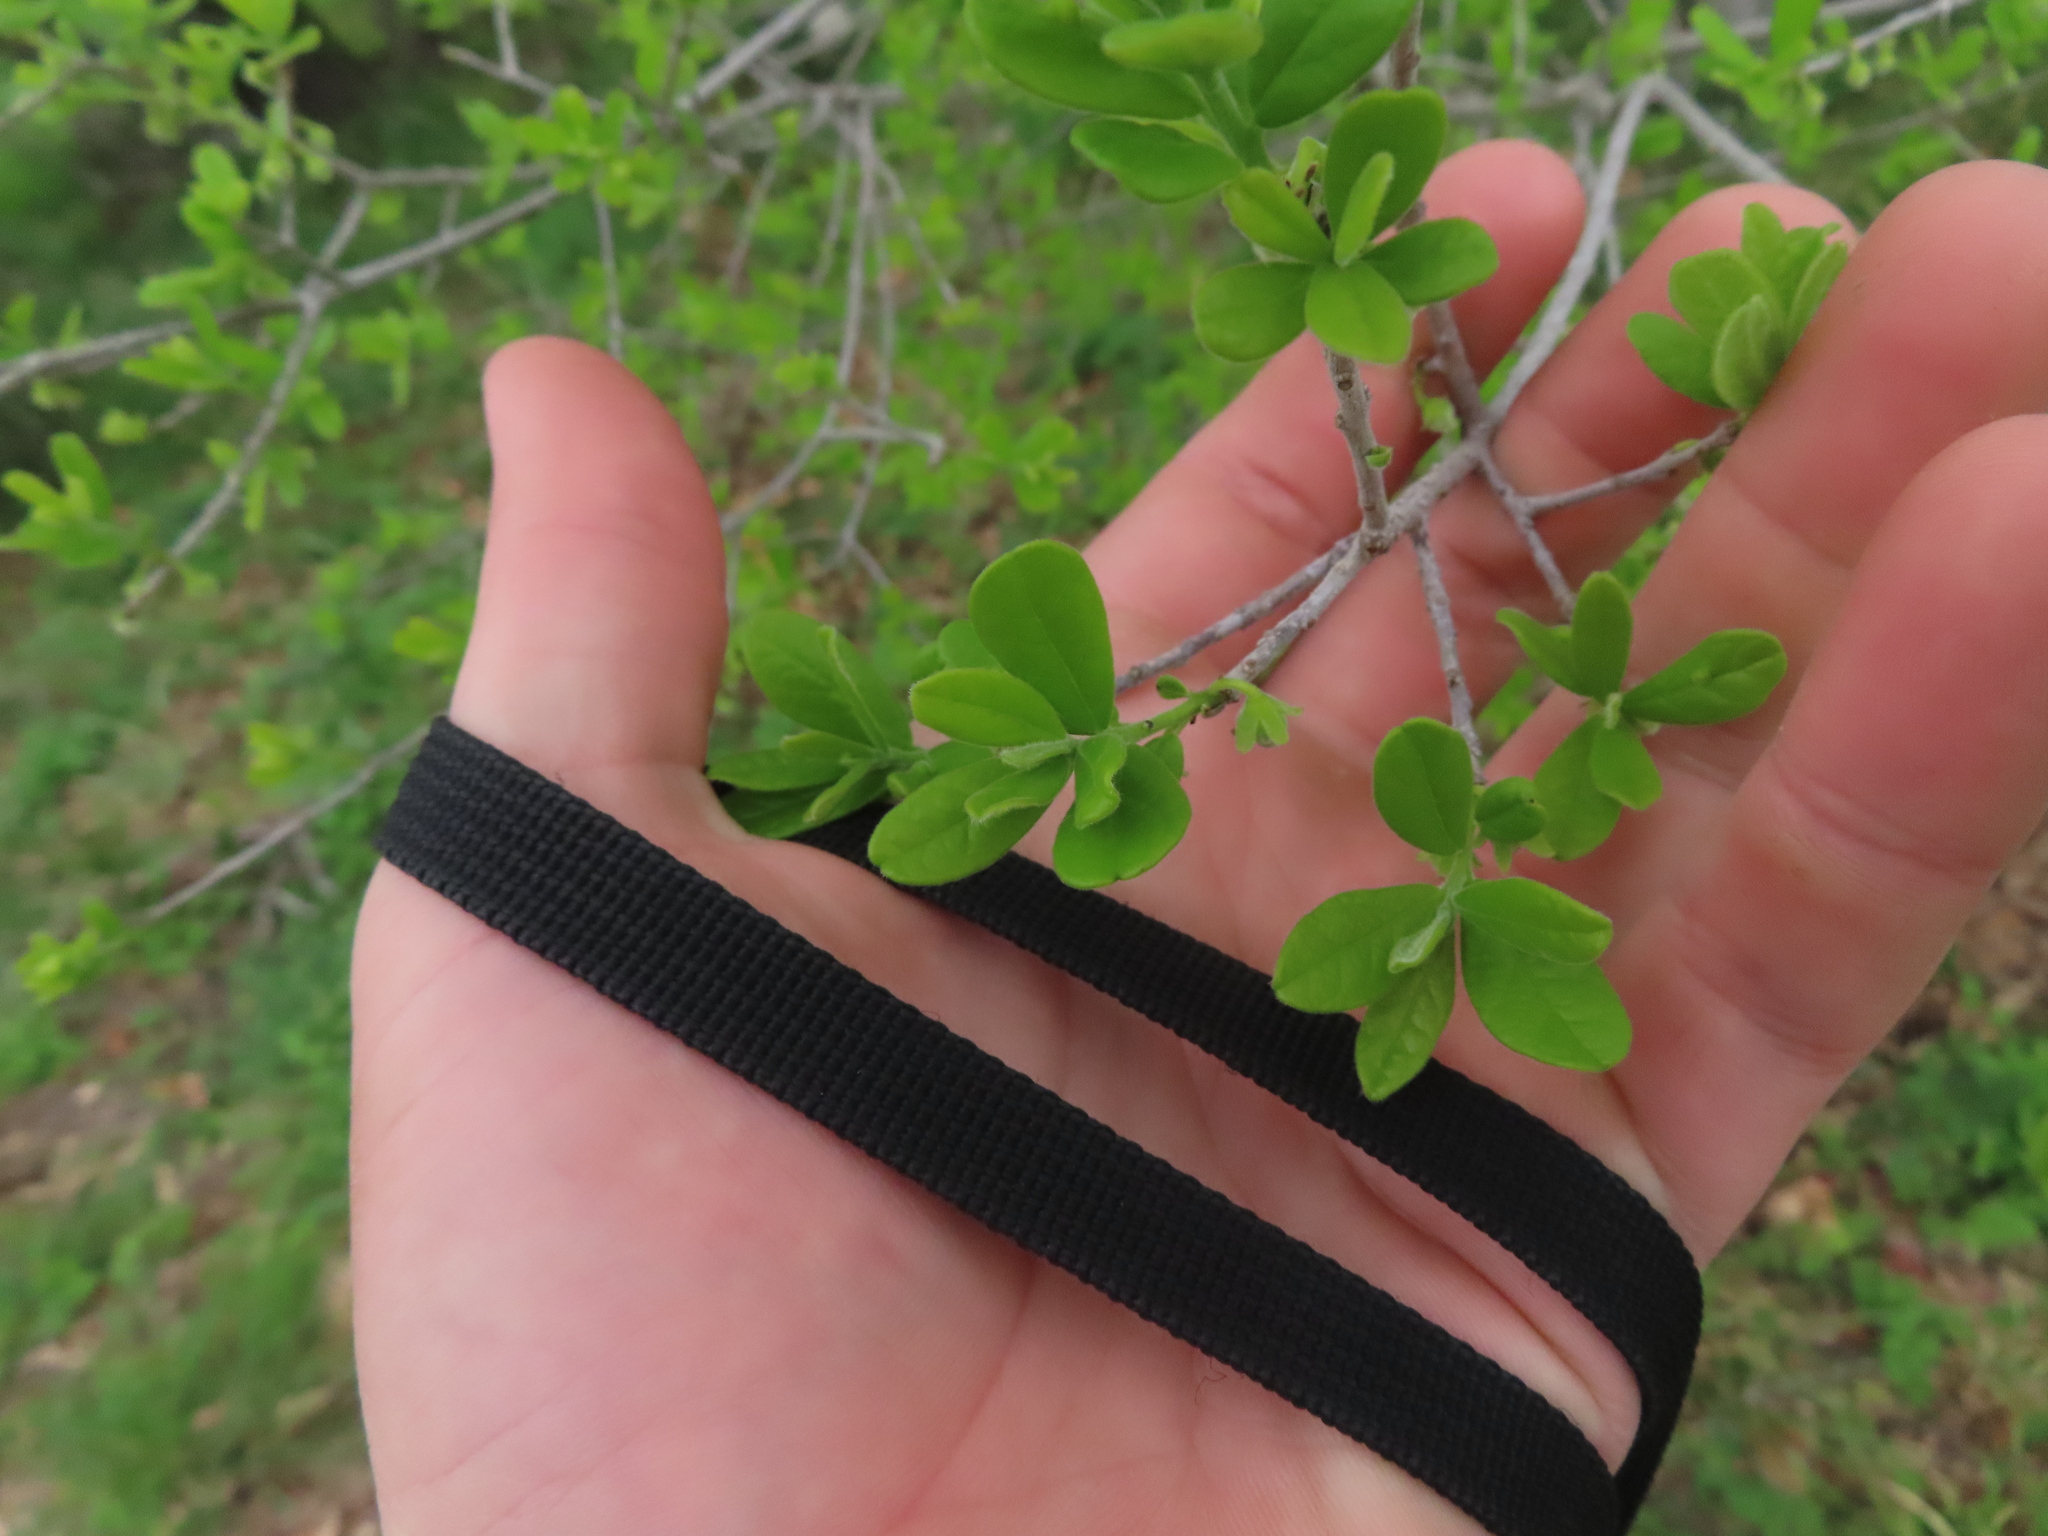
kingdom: Plantae
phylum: Tracheophyta
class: Magnoliopsida
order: Ericales
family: Ebenaceae
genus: Diospyros
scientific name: Diospyros texana
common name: Texas persimmon
